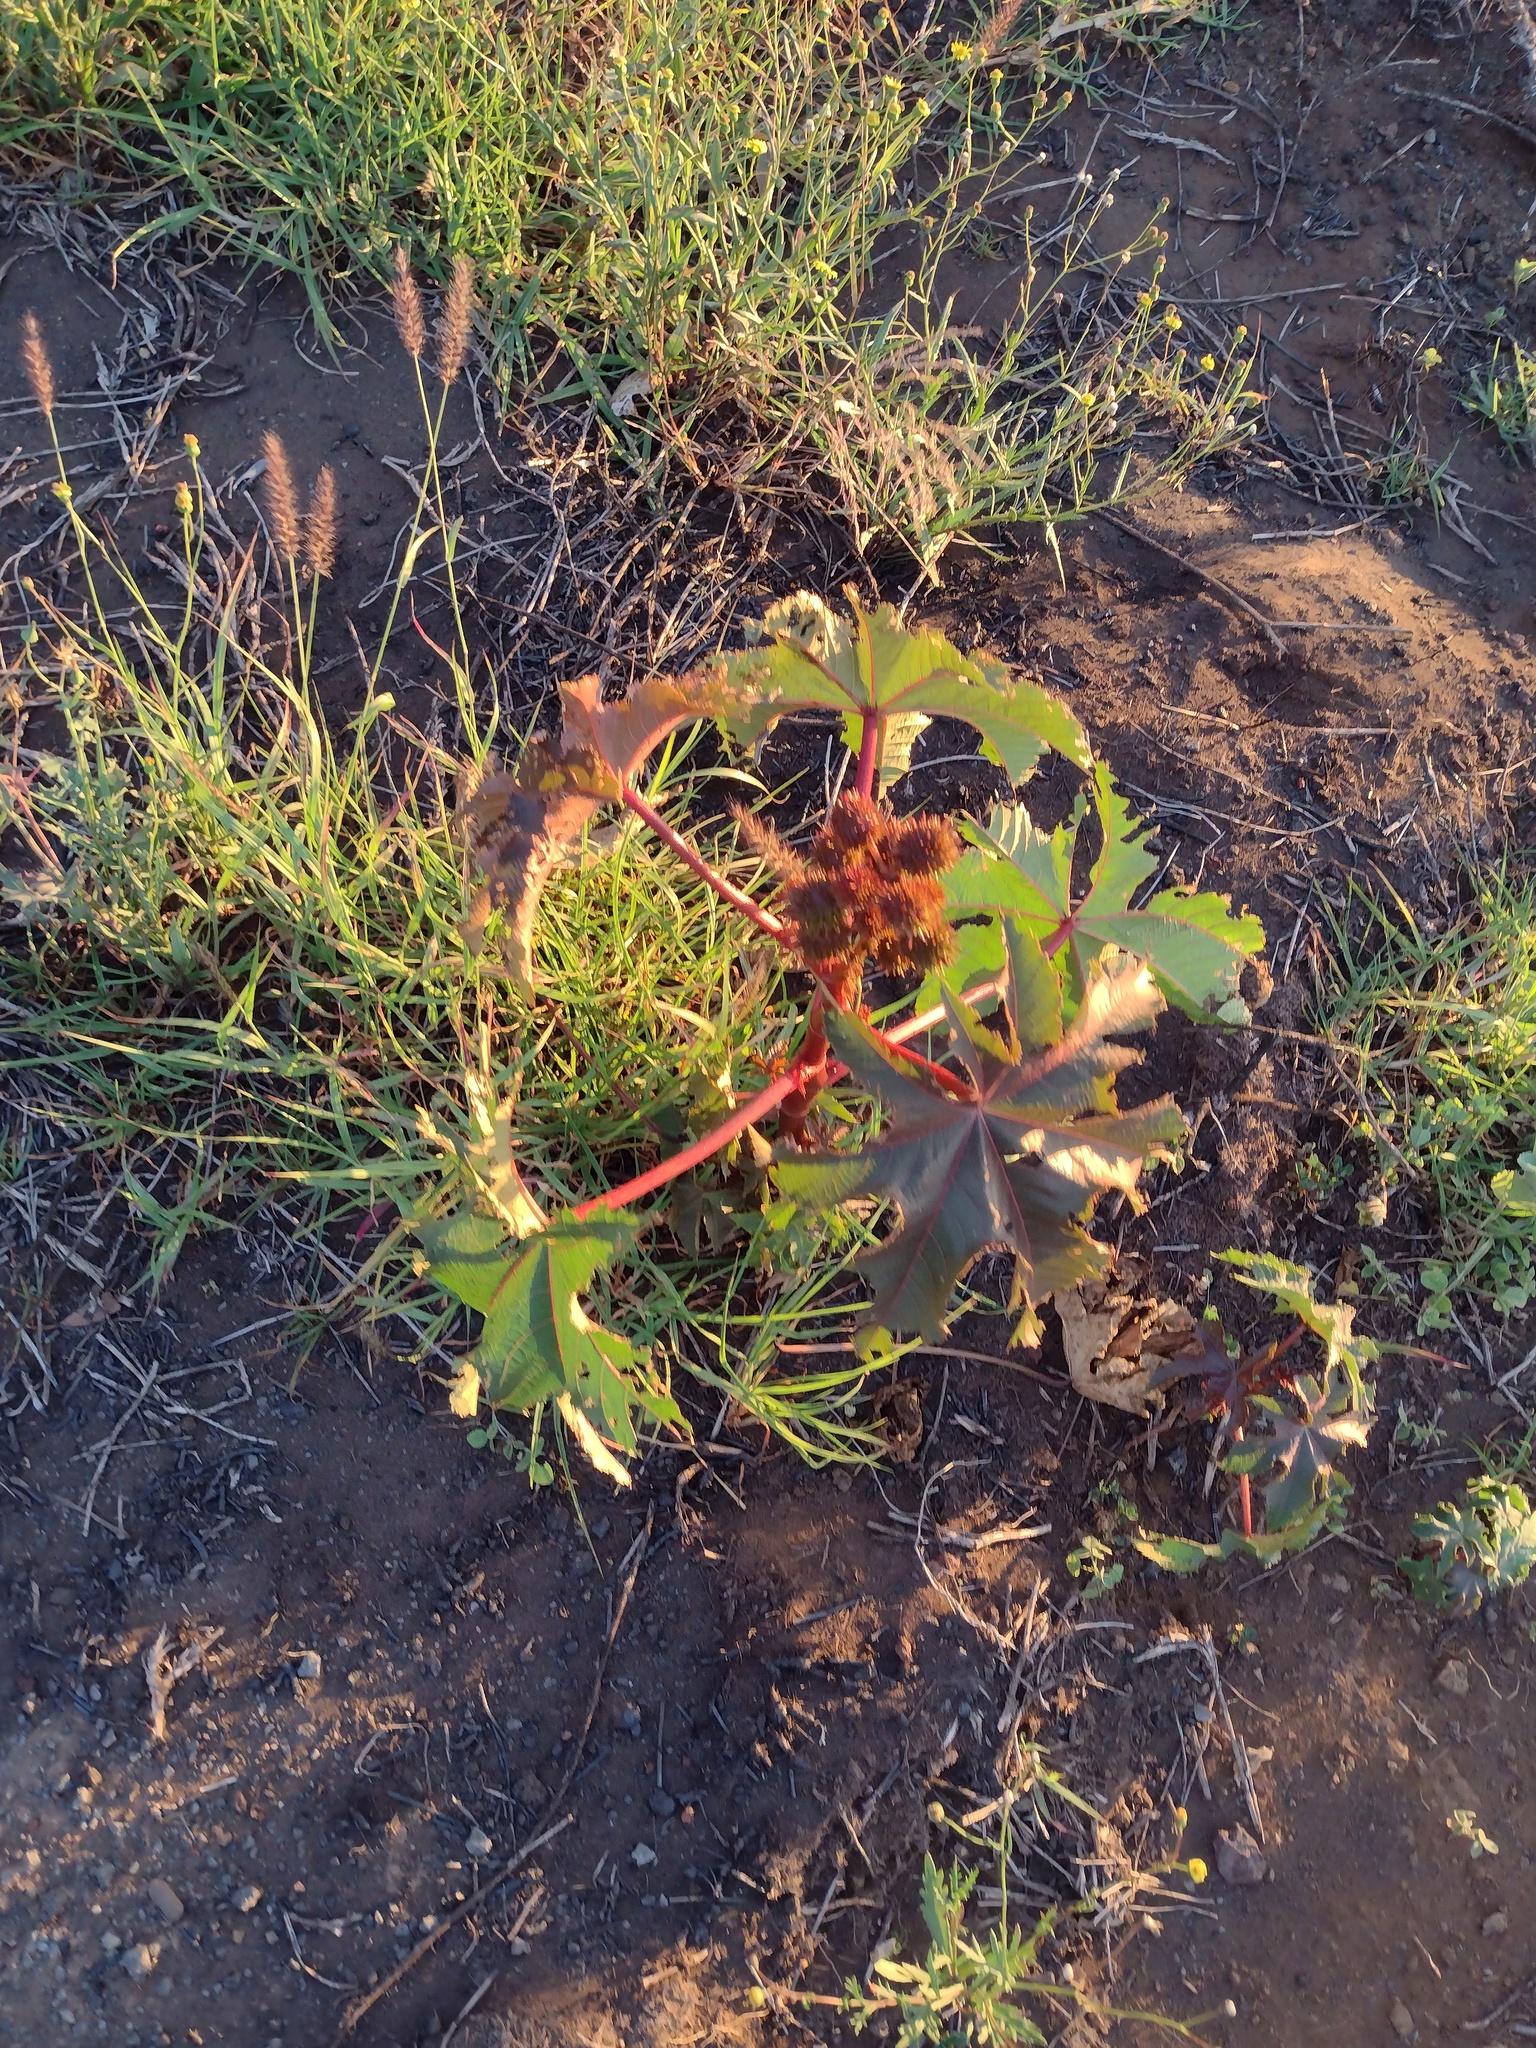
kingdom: Plantae
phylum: Tracheophyta
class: Magnoliopsida
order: Malpighiales
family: Euphorbiaceae
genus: Ricinus
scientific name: Ricinus communis
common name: Castor-oil-plant
